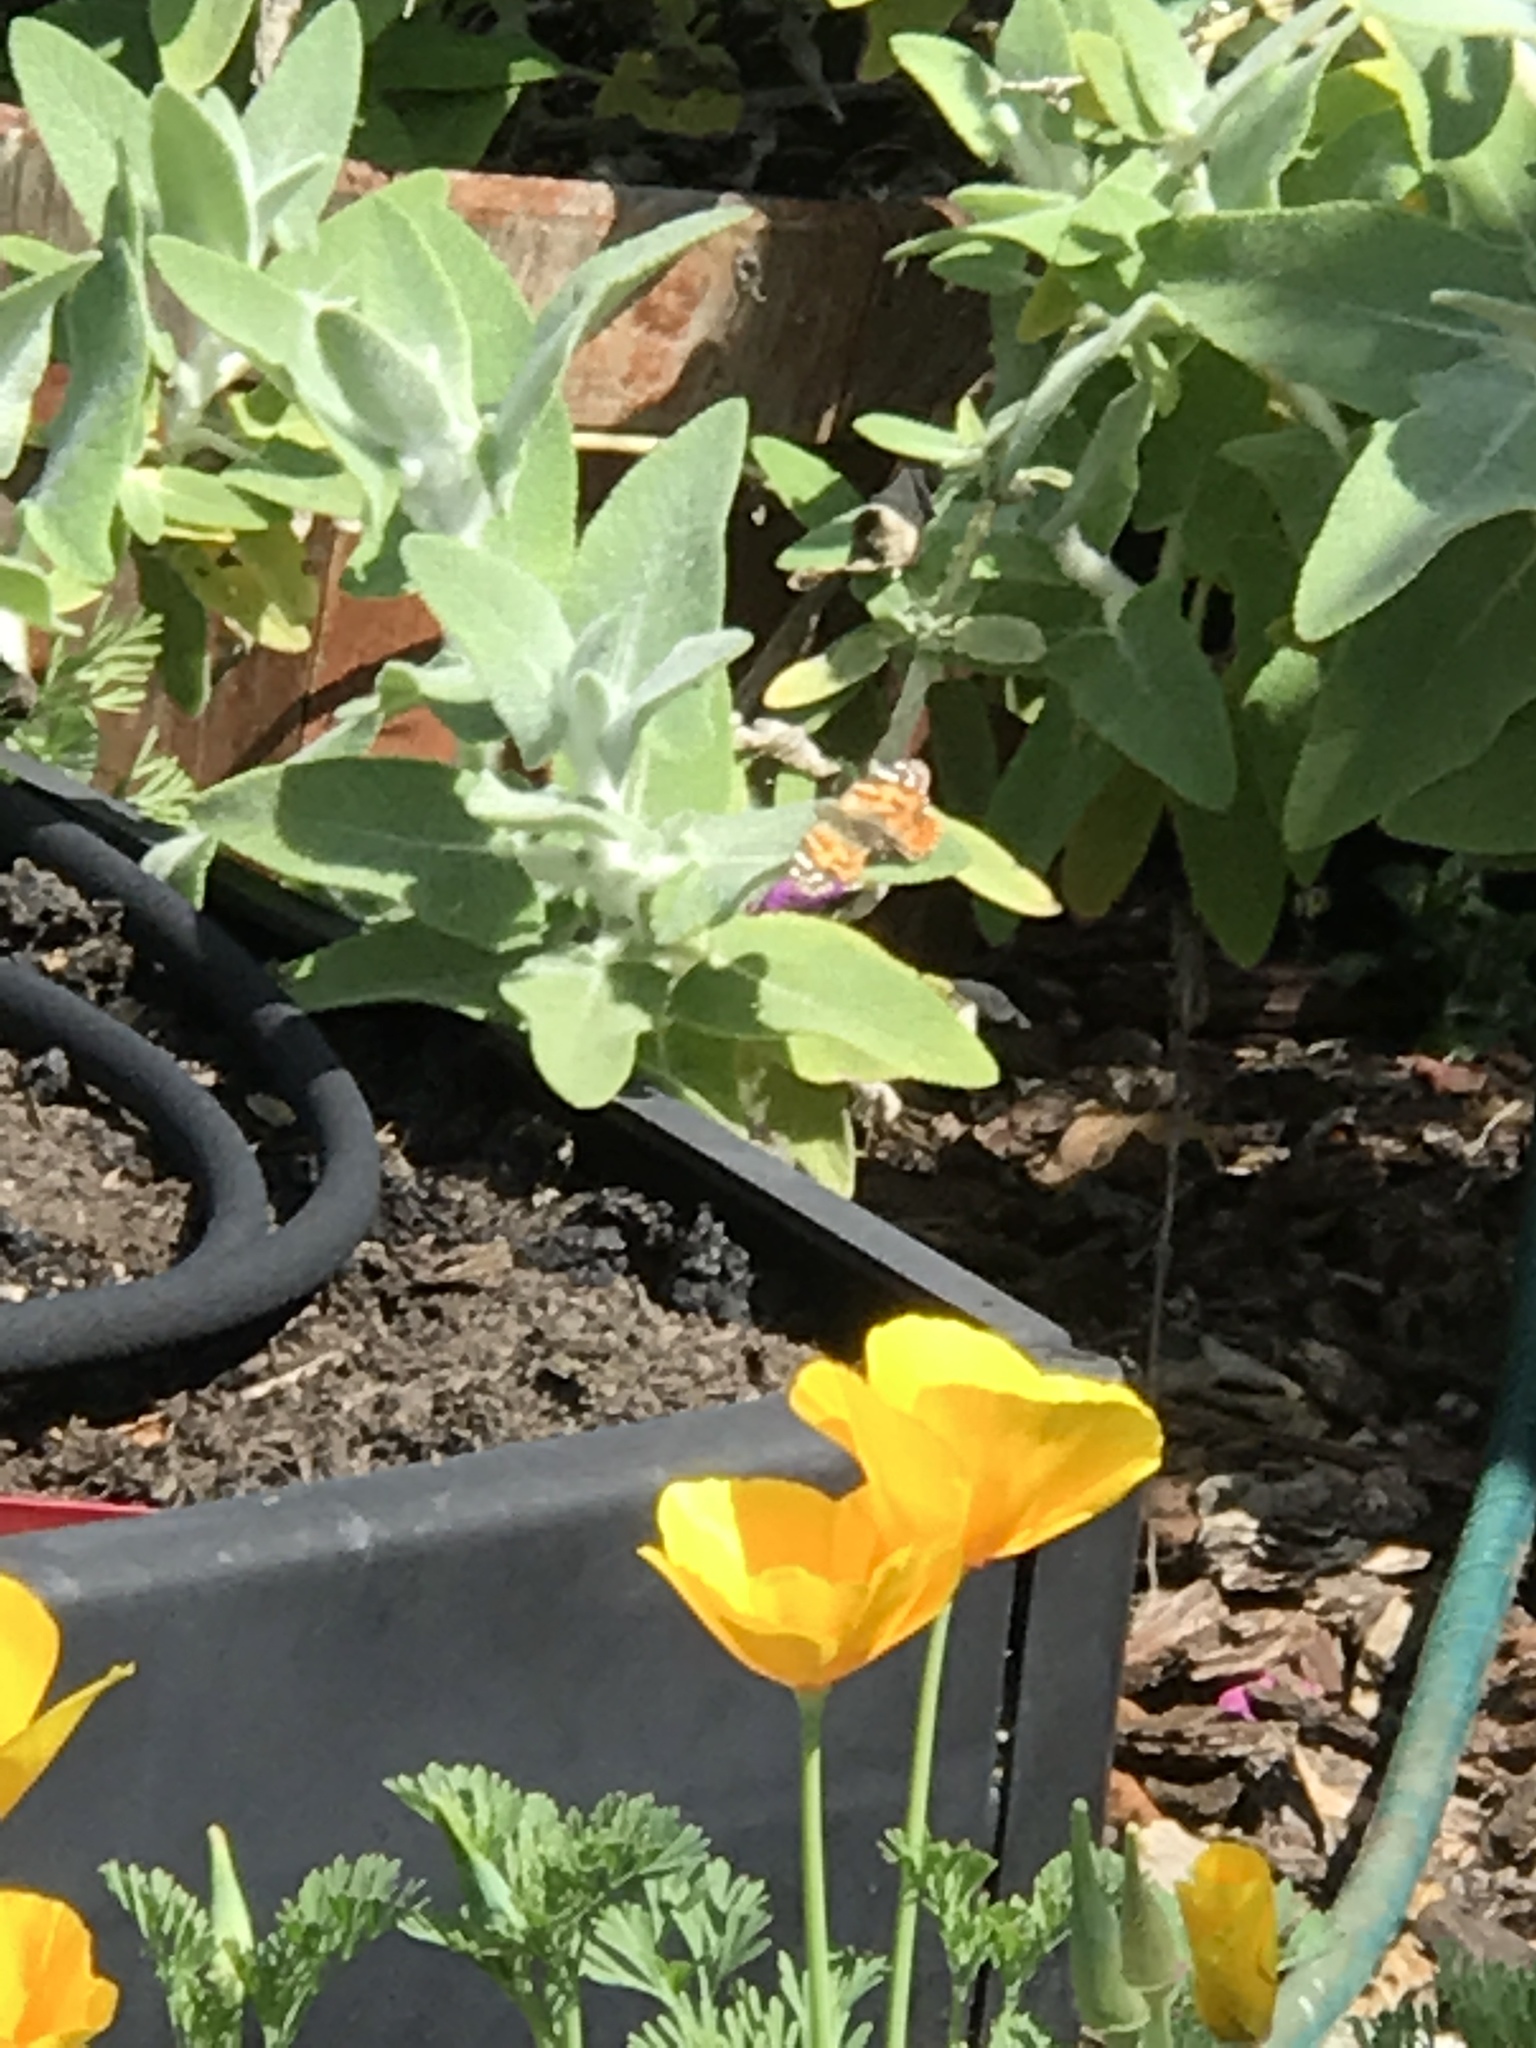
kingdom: Animalia
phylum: Arthropoda
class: Insecta
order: Lepidoptera
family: Nymphalidae
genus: Vanessa
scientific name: Vanessa cardui
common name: Painted lady
